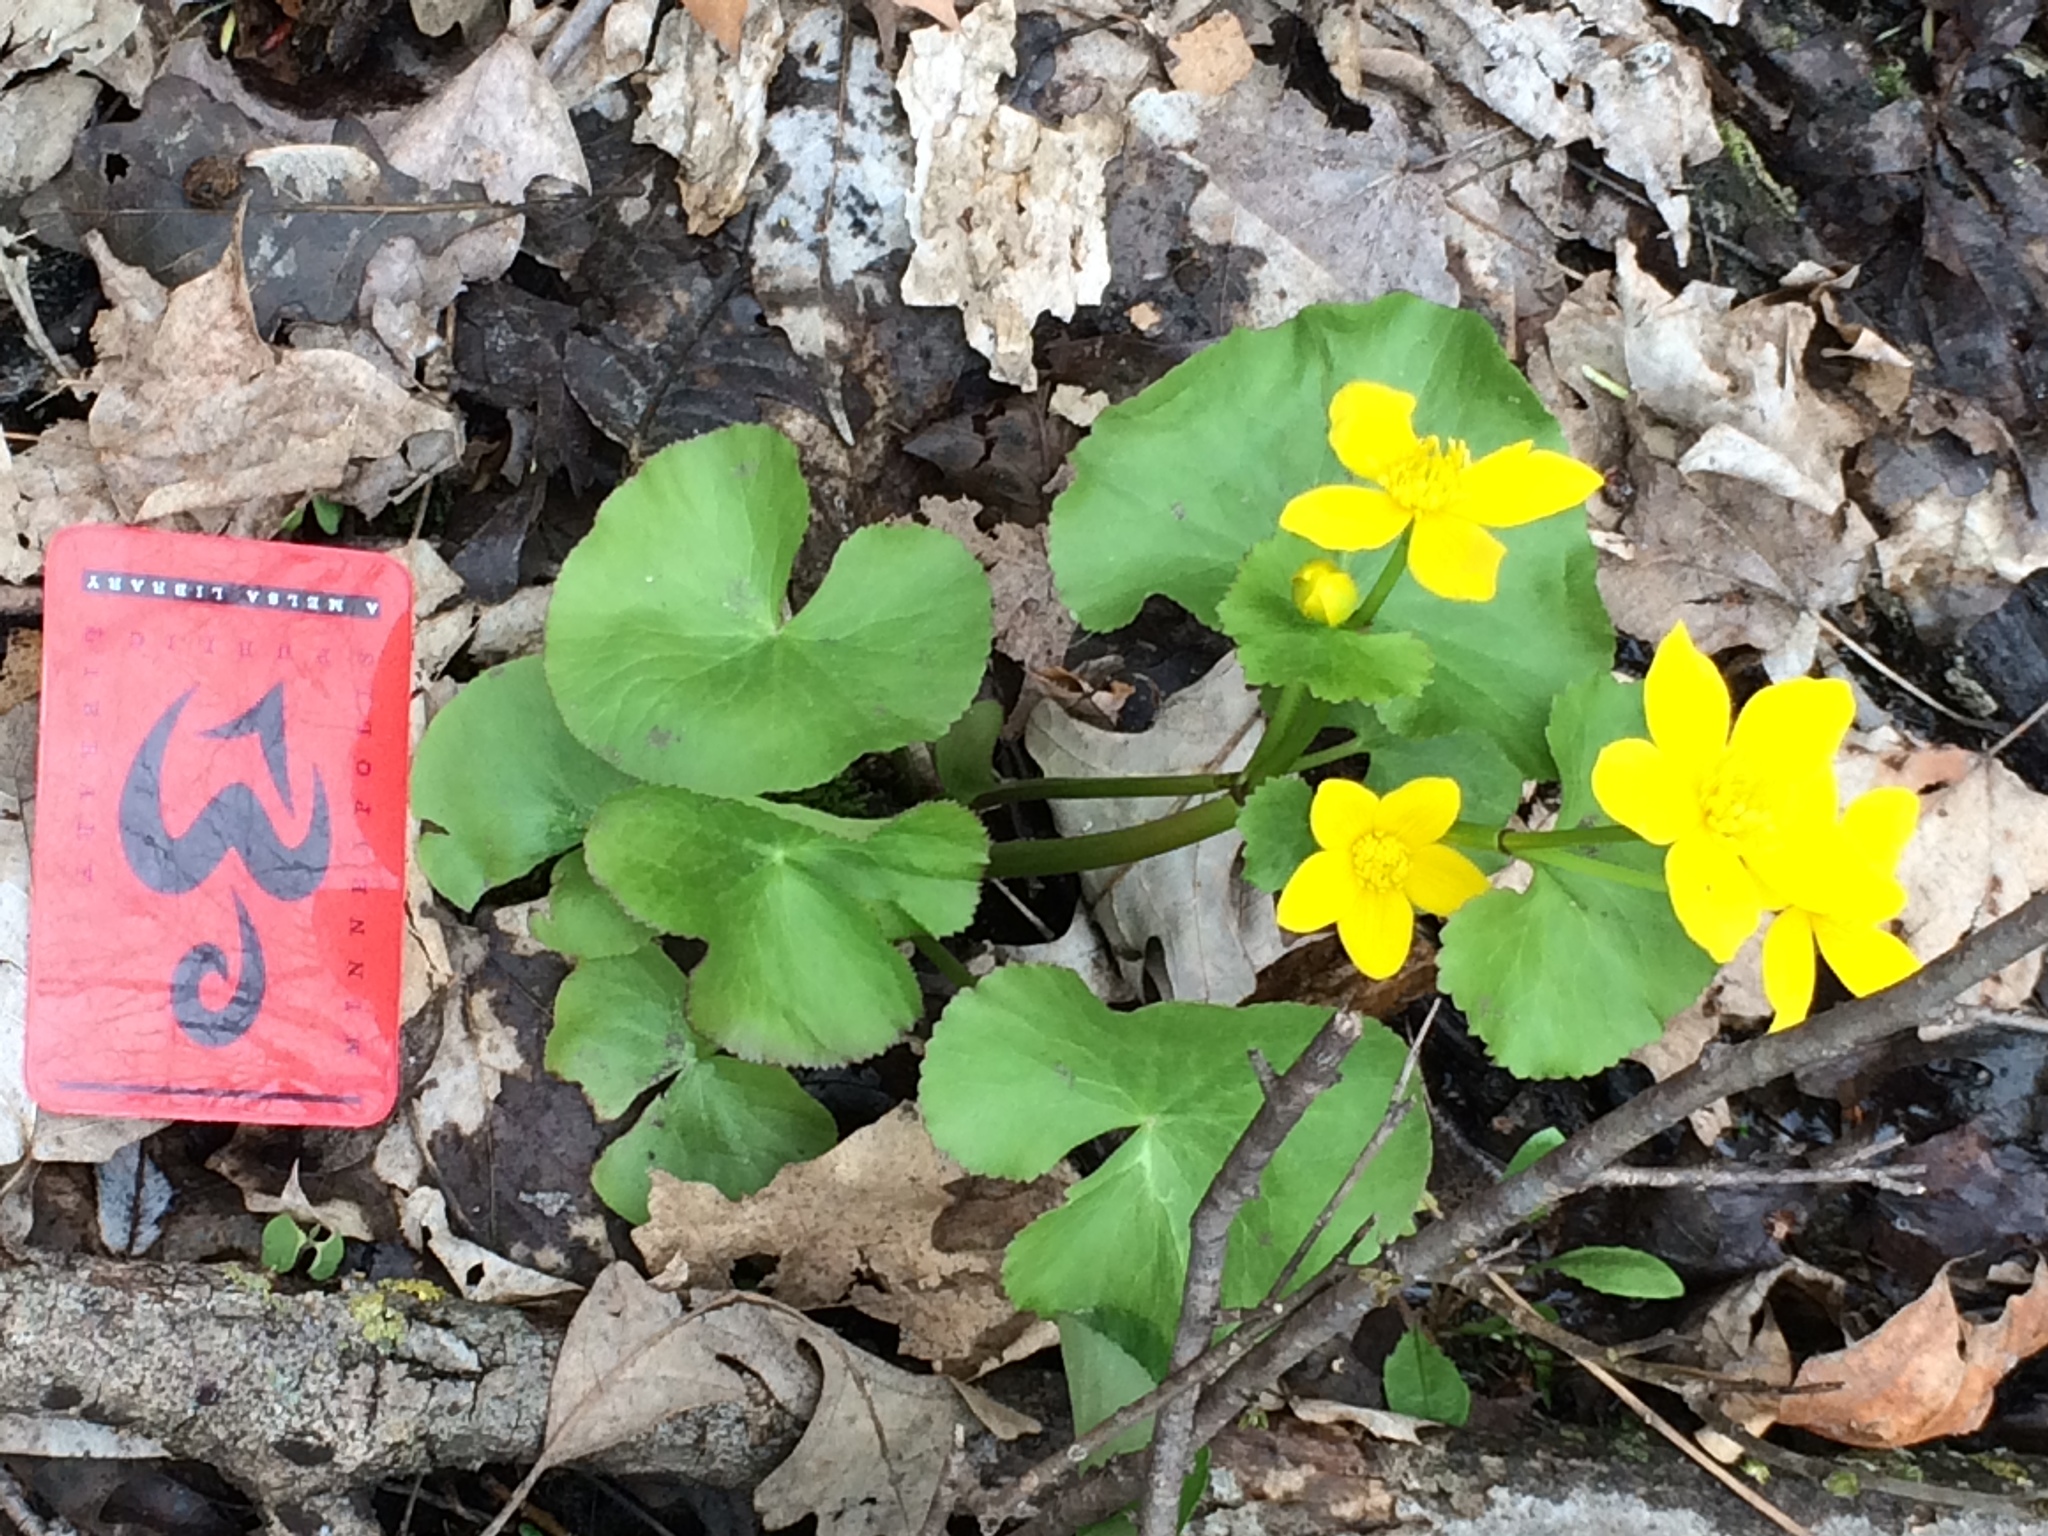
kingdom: Plantae
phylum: Tracheophyta
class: Magnoliopsida
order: Ranunculales
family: Ranunculaceae
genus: Caltha
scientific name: Caltha palustris
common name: Marsh marigold
